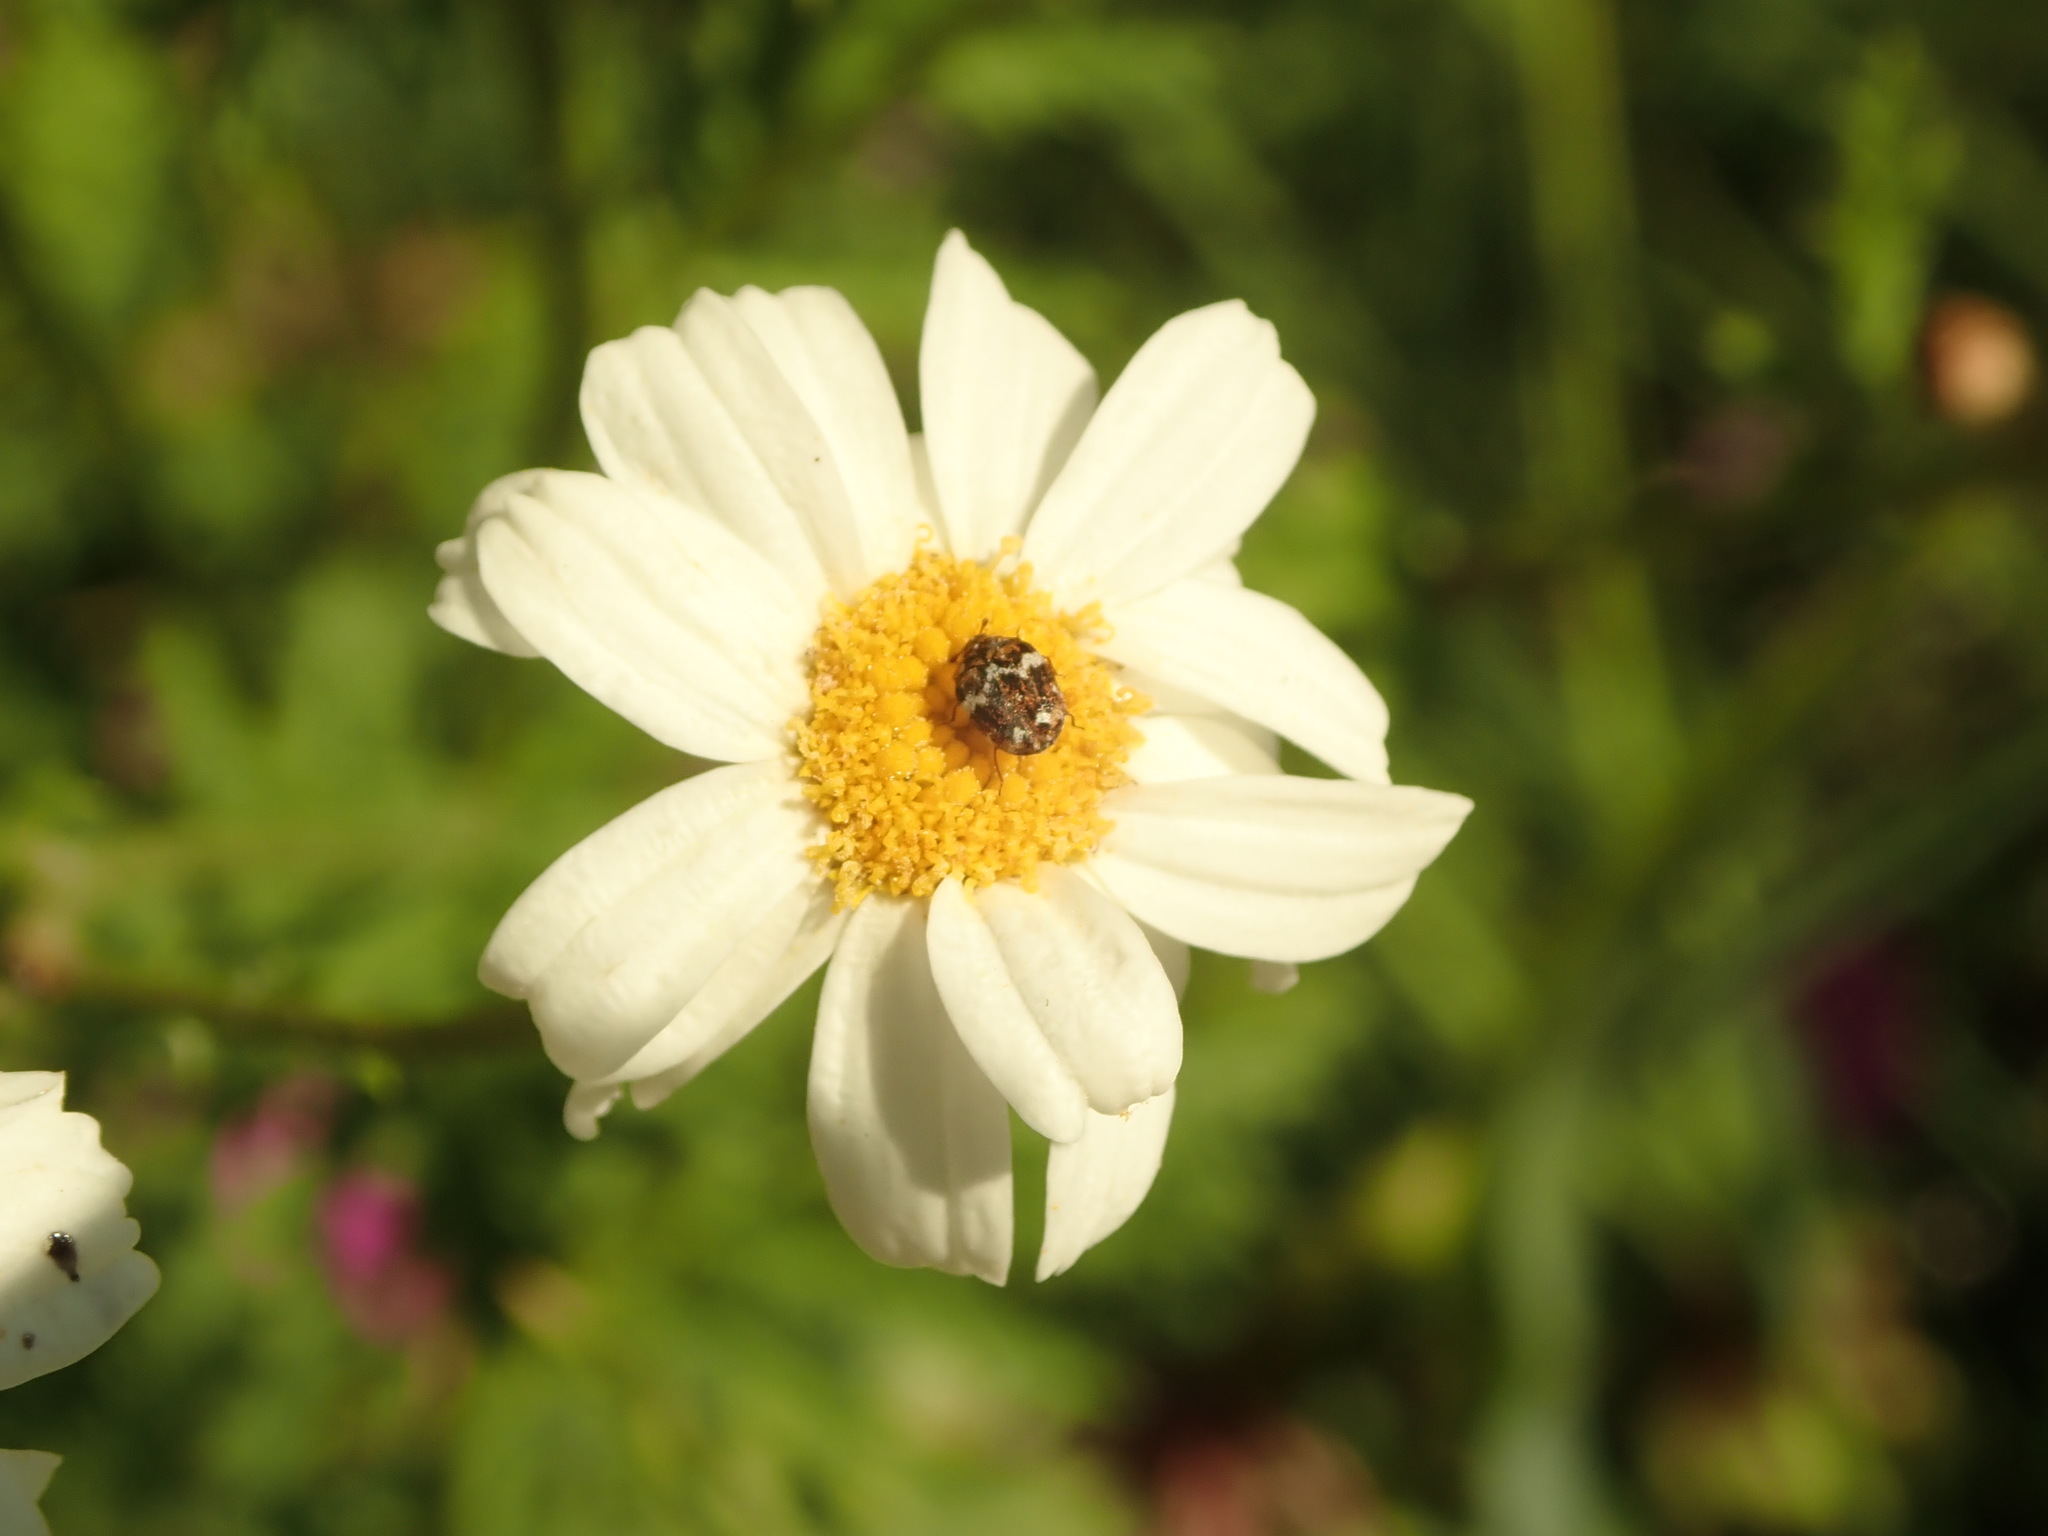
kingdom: Animalia
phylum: Arthropoda
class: Insecta
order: Coleoptera
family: Dermestidae
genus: Anthrenus
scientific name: Anthrenus angustefasciatus
